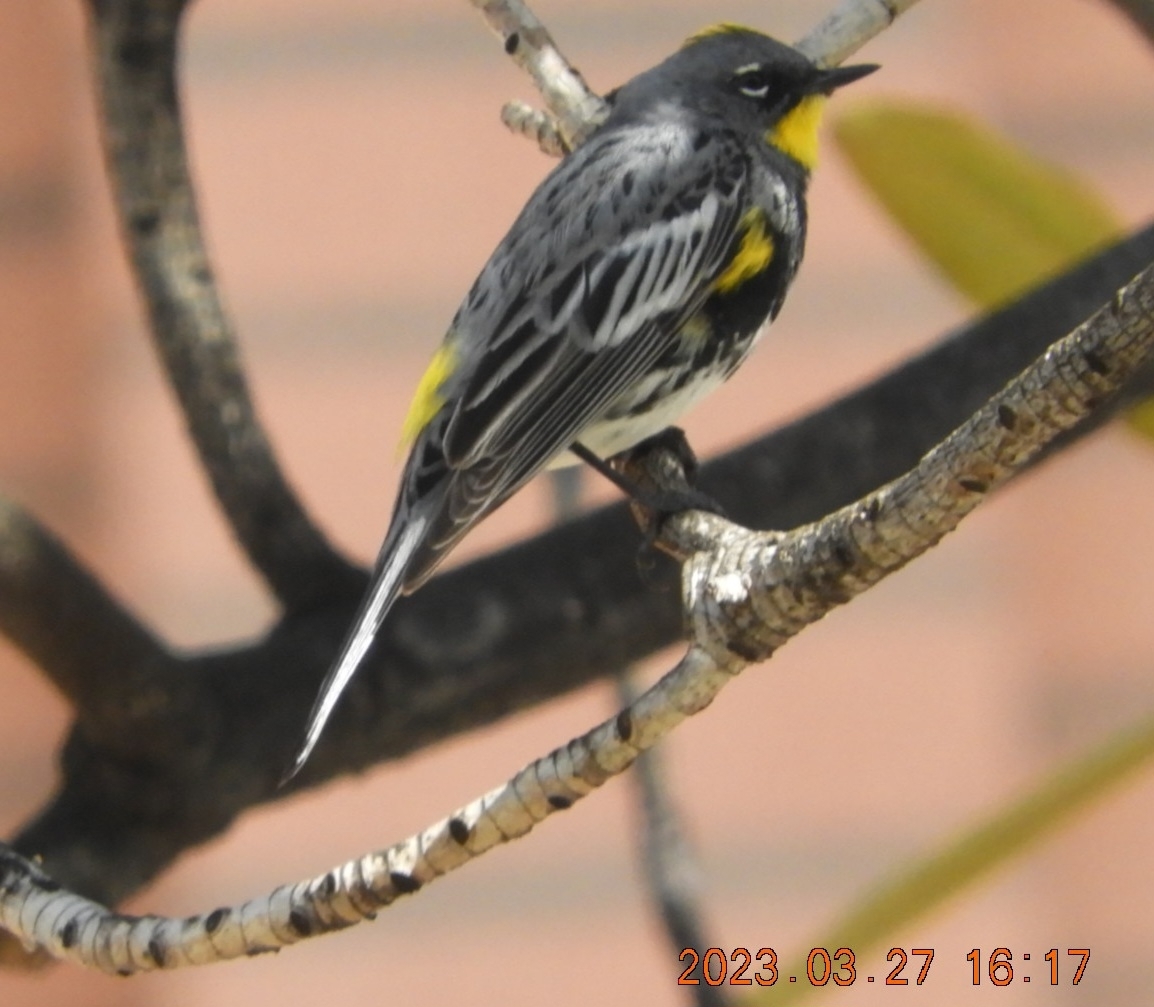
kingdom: Animalia
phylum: Chordata
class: Aves
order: Passeriformes
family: Parulidae
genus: Setophaga
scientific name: Setophaga coronata
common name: Myrtle warbler
